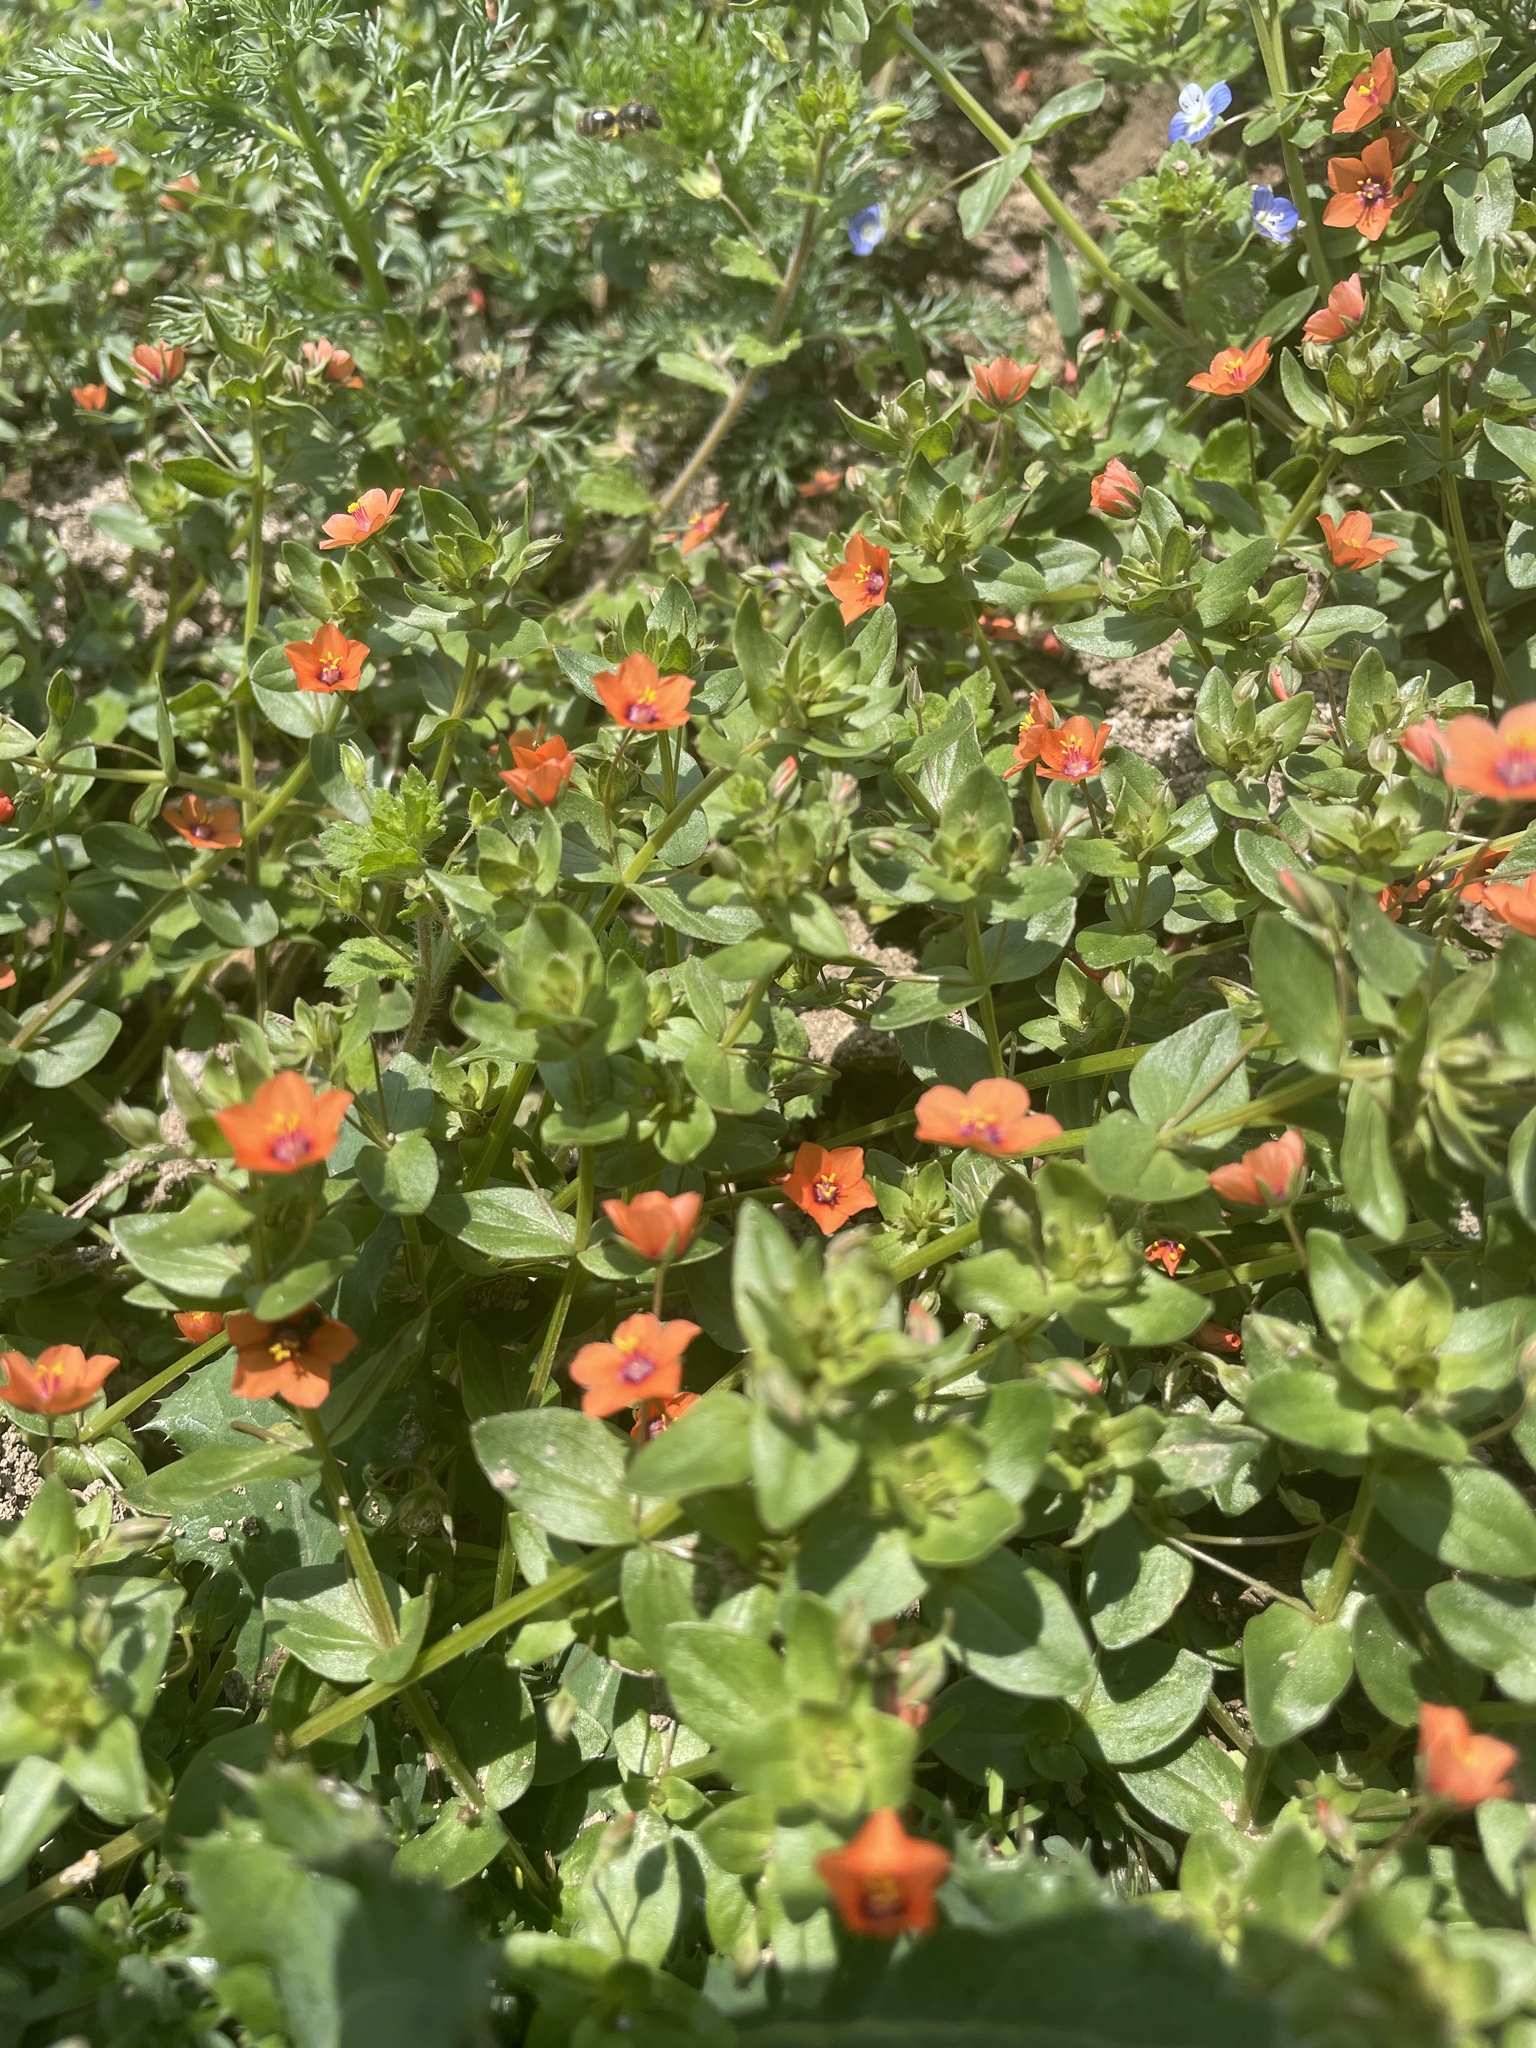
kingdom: Plantae
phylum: Tracheophyta
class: Magnoliopsida
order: Ericales
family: Primulaceae
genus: Lysimachia
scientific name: Lysimachia arvensis
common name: Scarlet pimpernel
